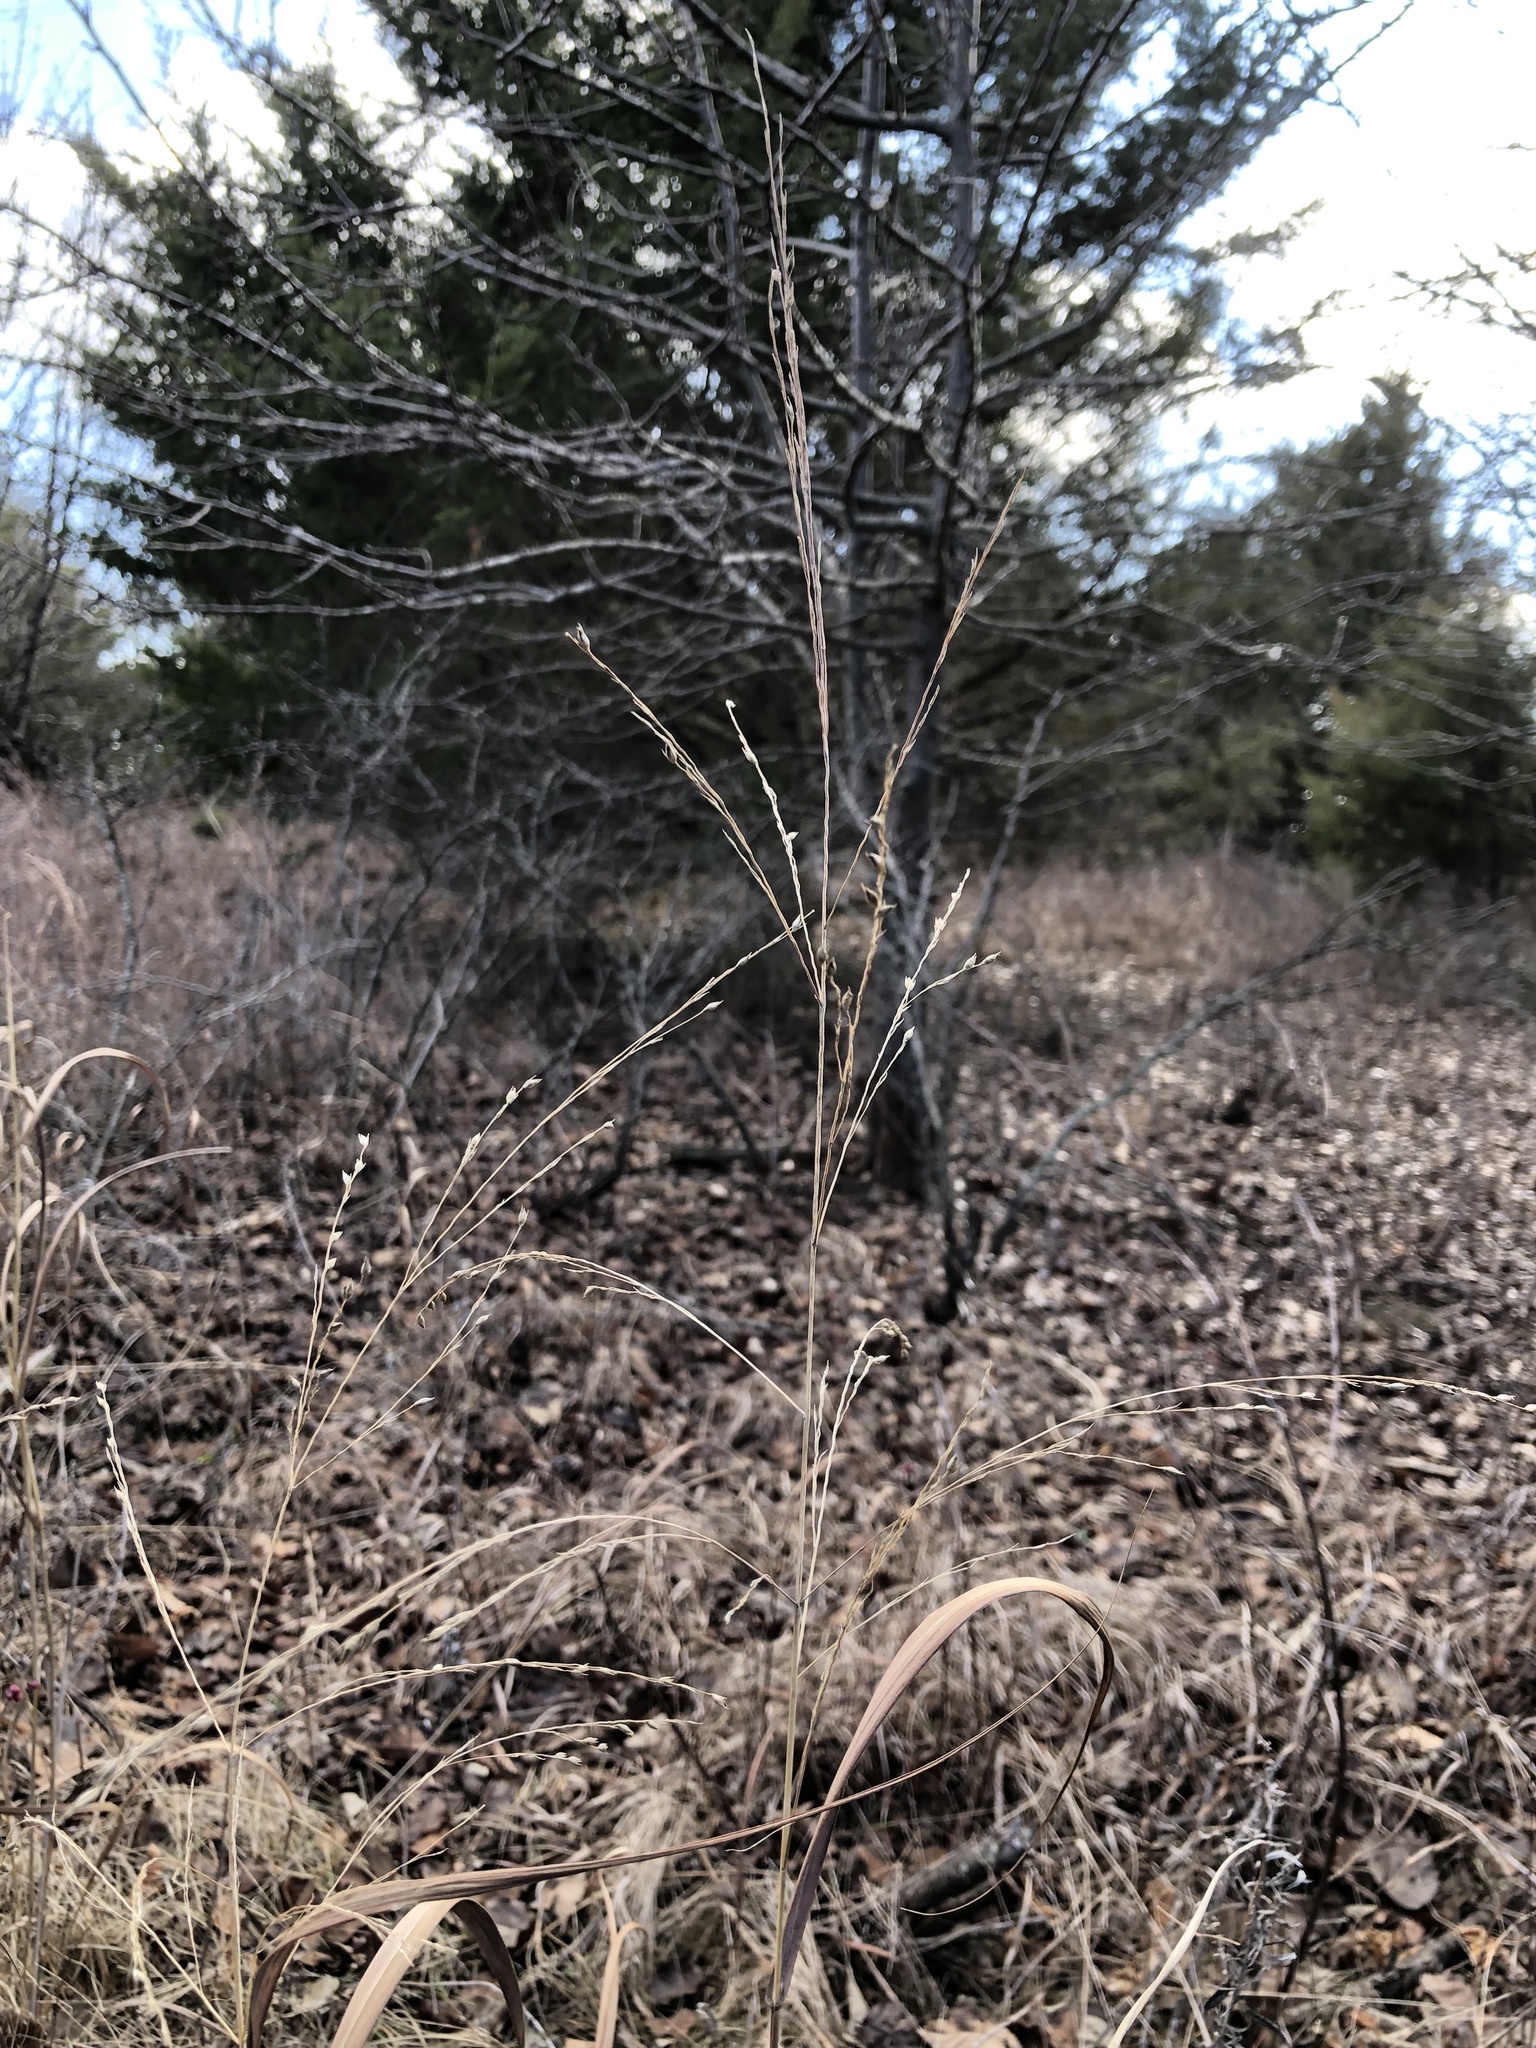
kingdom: Plantae
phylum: Tracheophyta
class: Liliopsida
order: Poales
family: Poaceae
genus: Panicum
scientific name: Panicum virgatum
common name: Switchgrass
